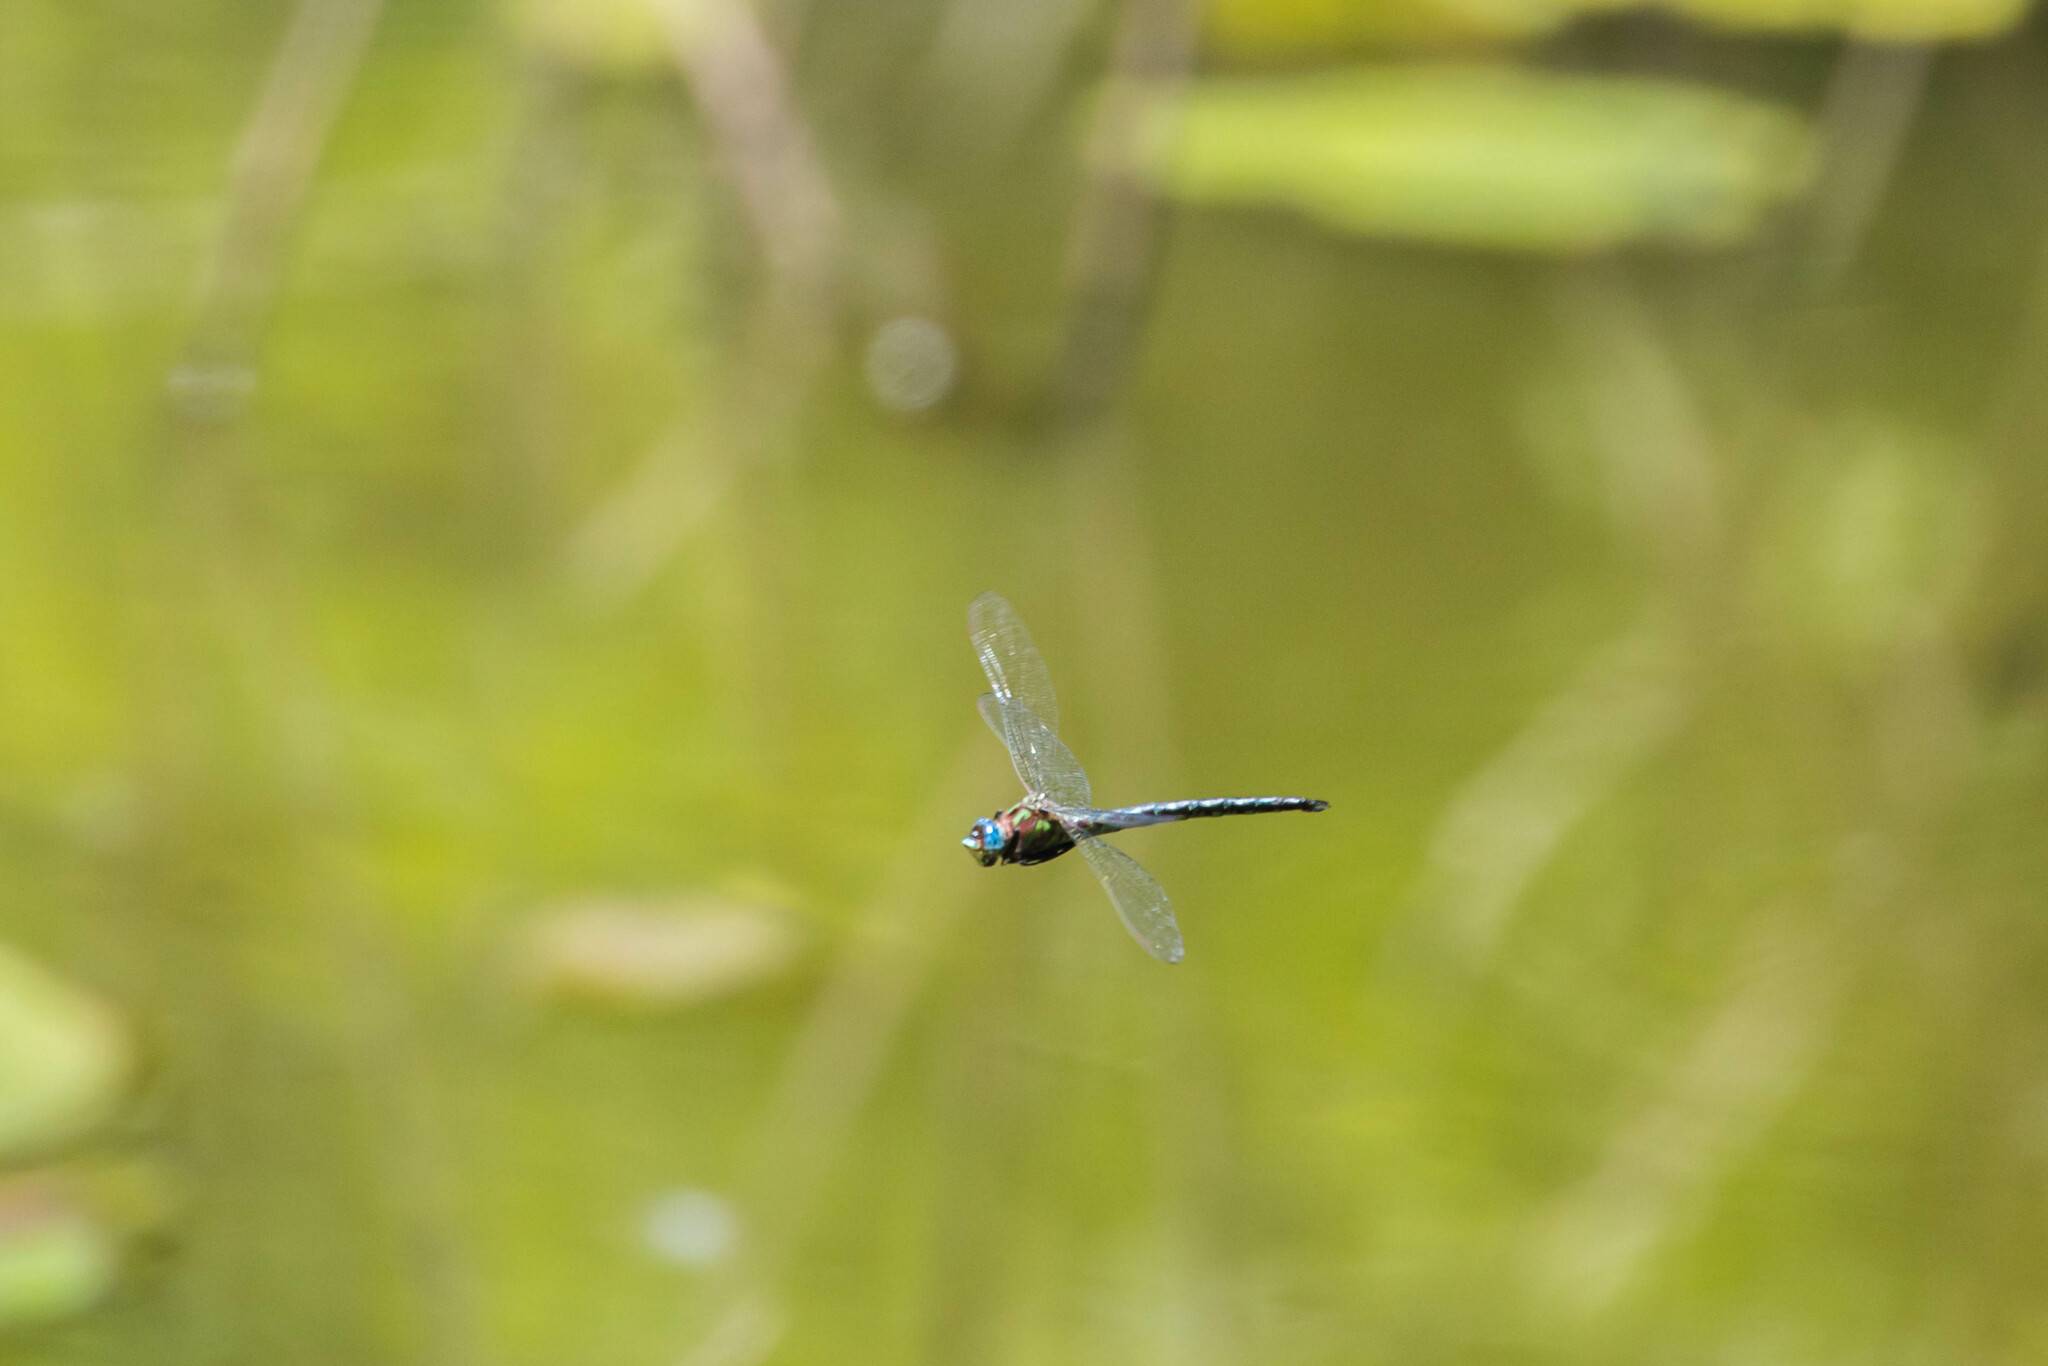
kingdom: Animalia
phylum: Arthropoda
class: Insecta
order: Odonata
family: Aeshnidae
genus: Nasiaeschna
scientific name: Nasiaeschna pentacantha
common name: Cyrano darner
